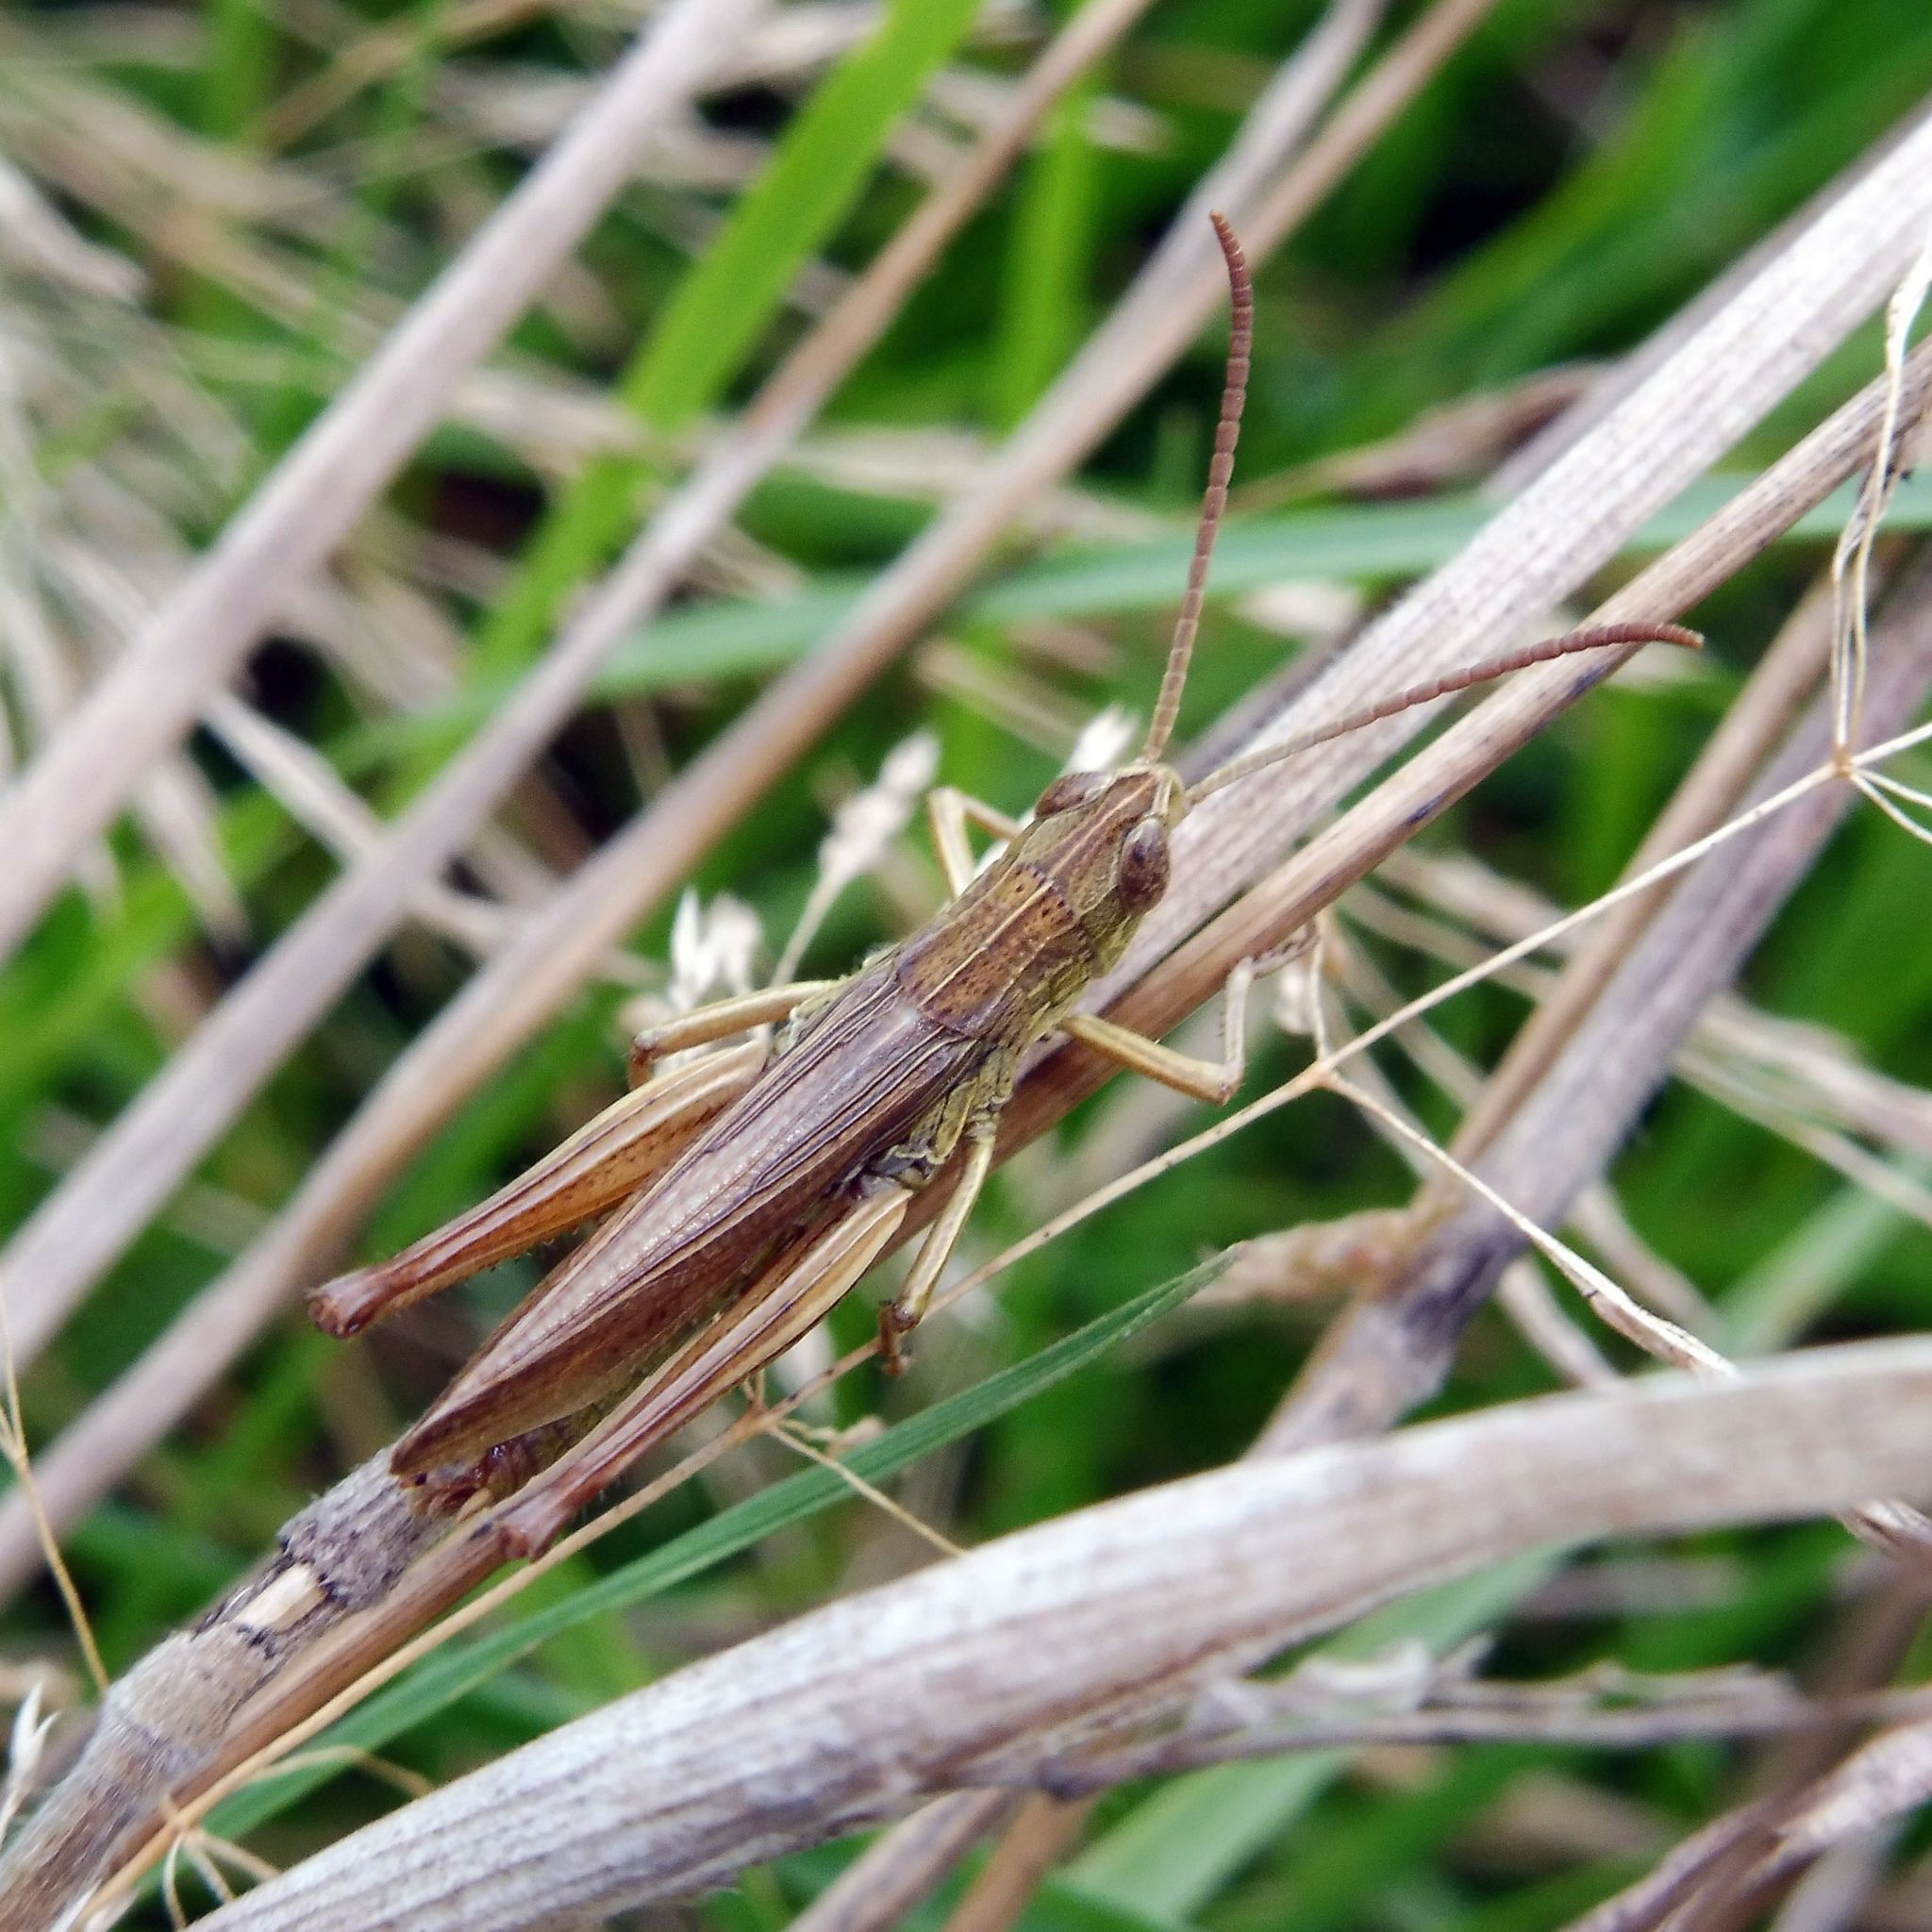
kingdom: Animalia
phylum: Arthropoda
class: Insecta
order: Orthoptera
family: Acrididae
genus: Chorthippus
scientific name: Chorthippus albomarginatus
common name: Lesser marsh grasshopper
